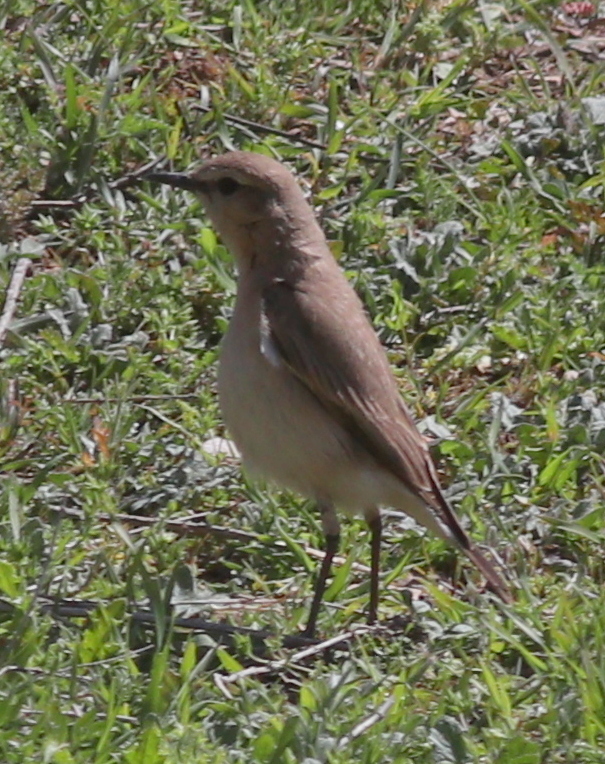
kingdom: Animalia
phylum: Chordata
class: Aves
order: Passeriformes
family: Muscicapidae
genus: Oenanthe
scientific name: Oenanthe isabellina
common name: Isabelline wheatear
